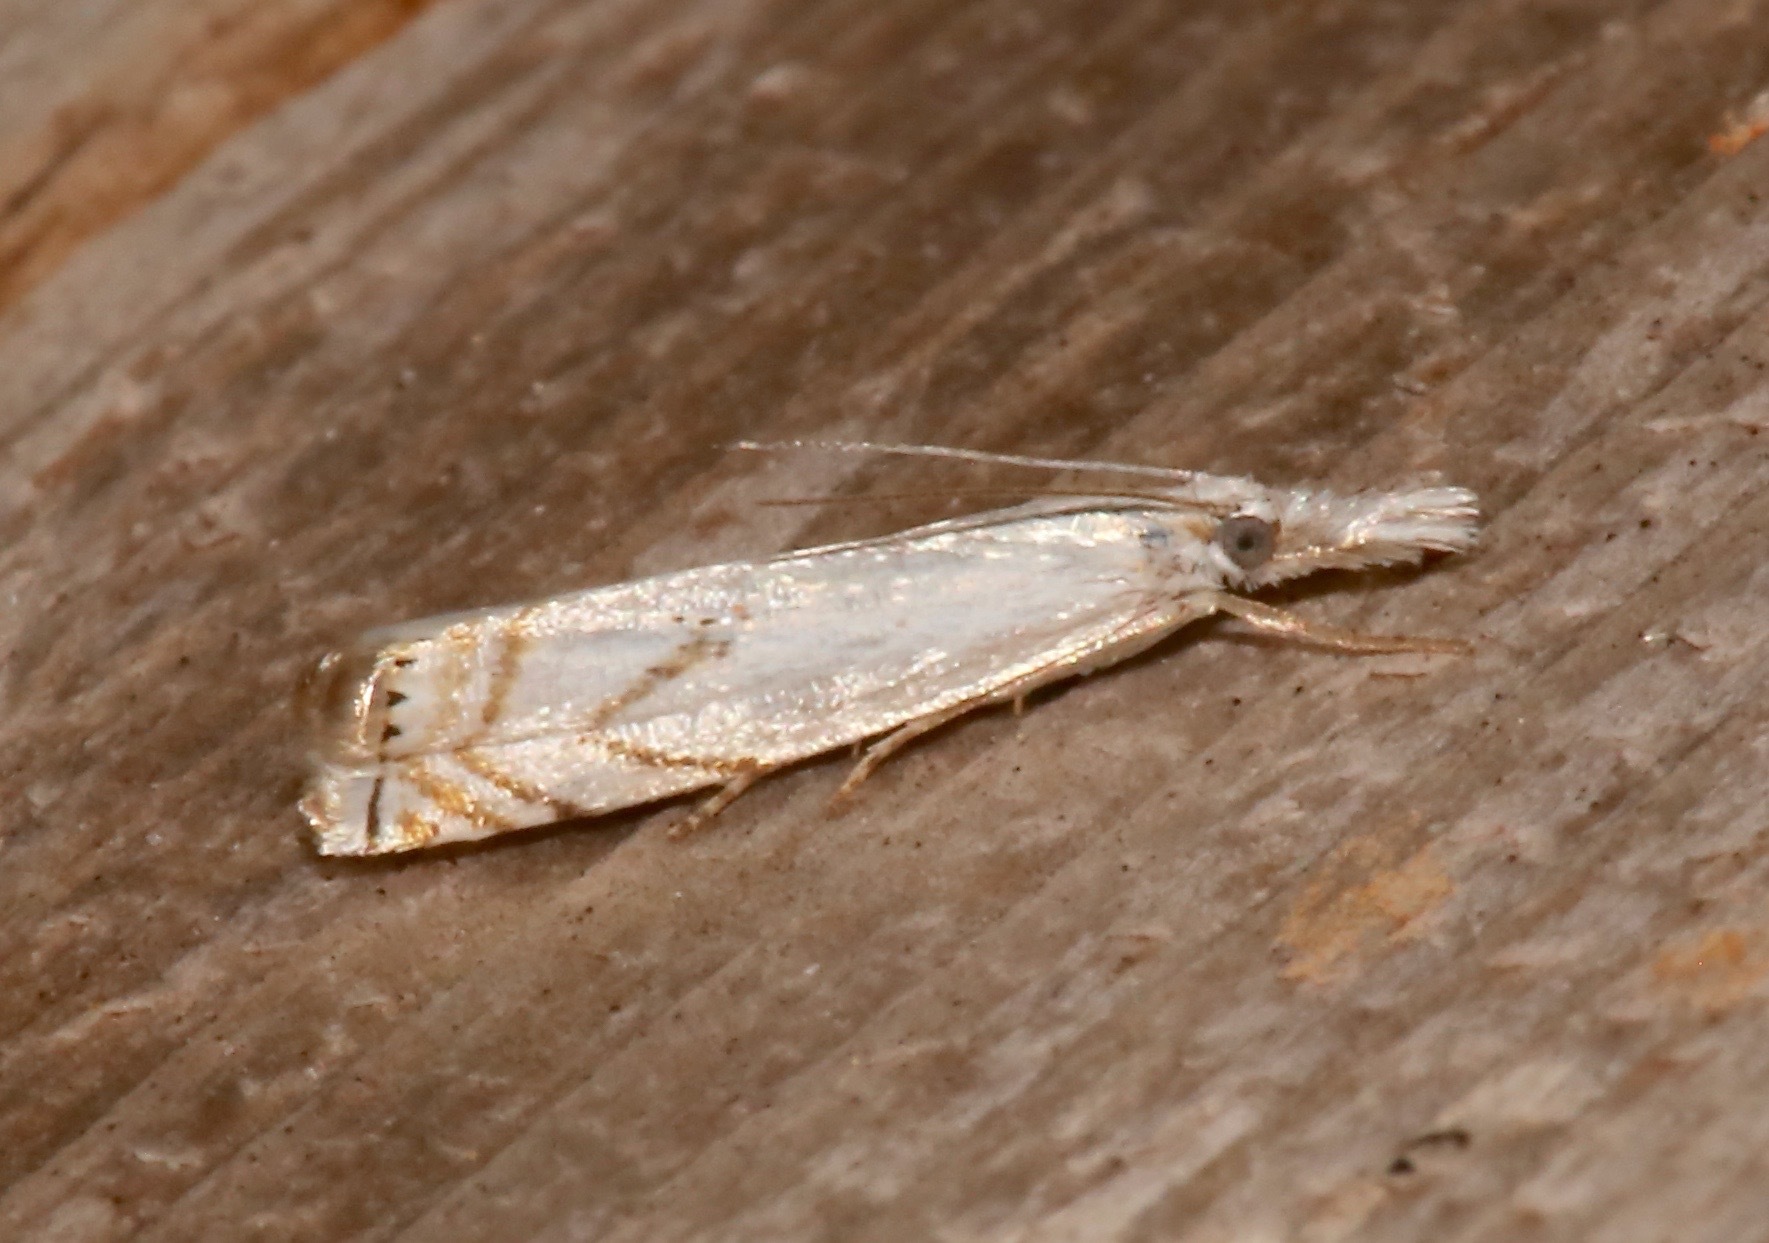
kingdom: Animalia
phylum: Arthropoda
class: Insecta
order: Lepidoptera
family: Crambidae
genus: Crambus
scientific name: Crambus albellus
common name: Small white grass-veneer
